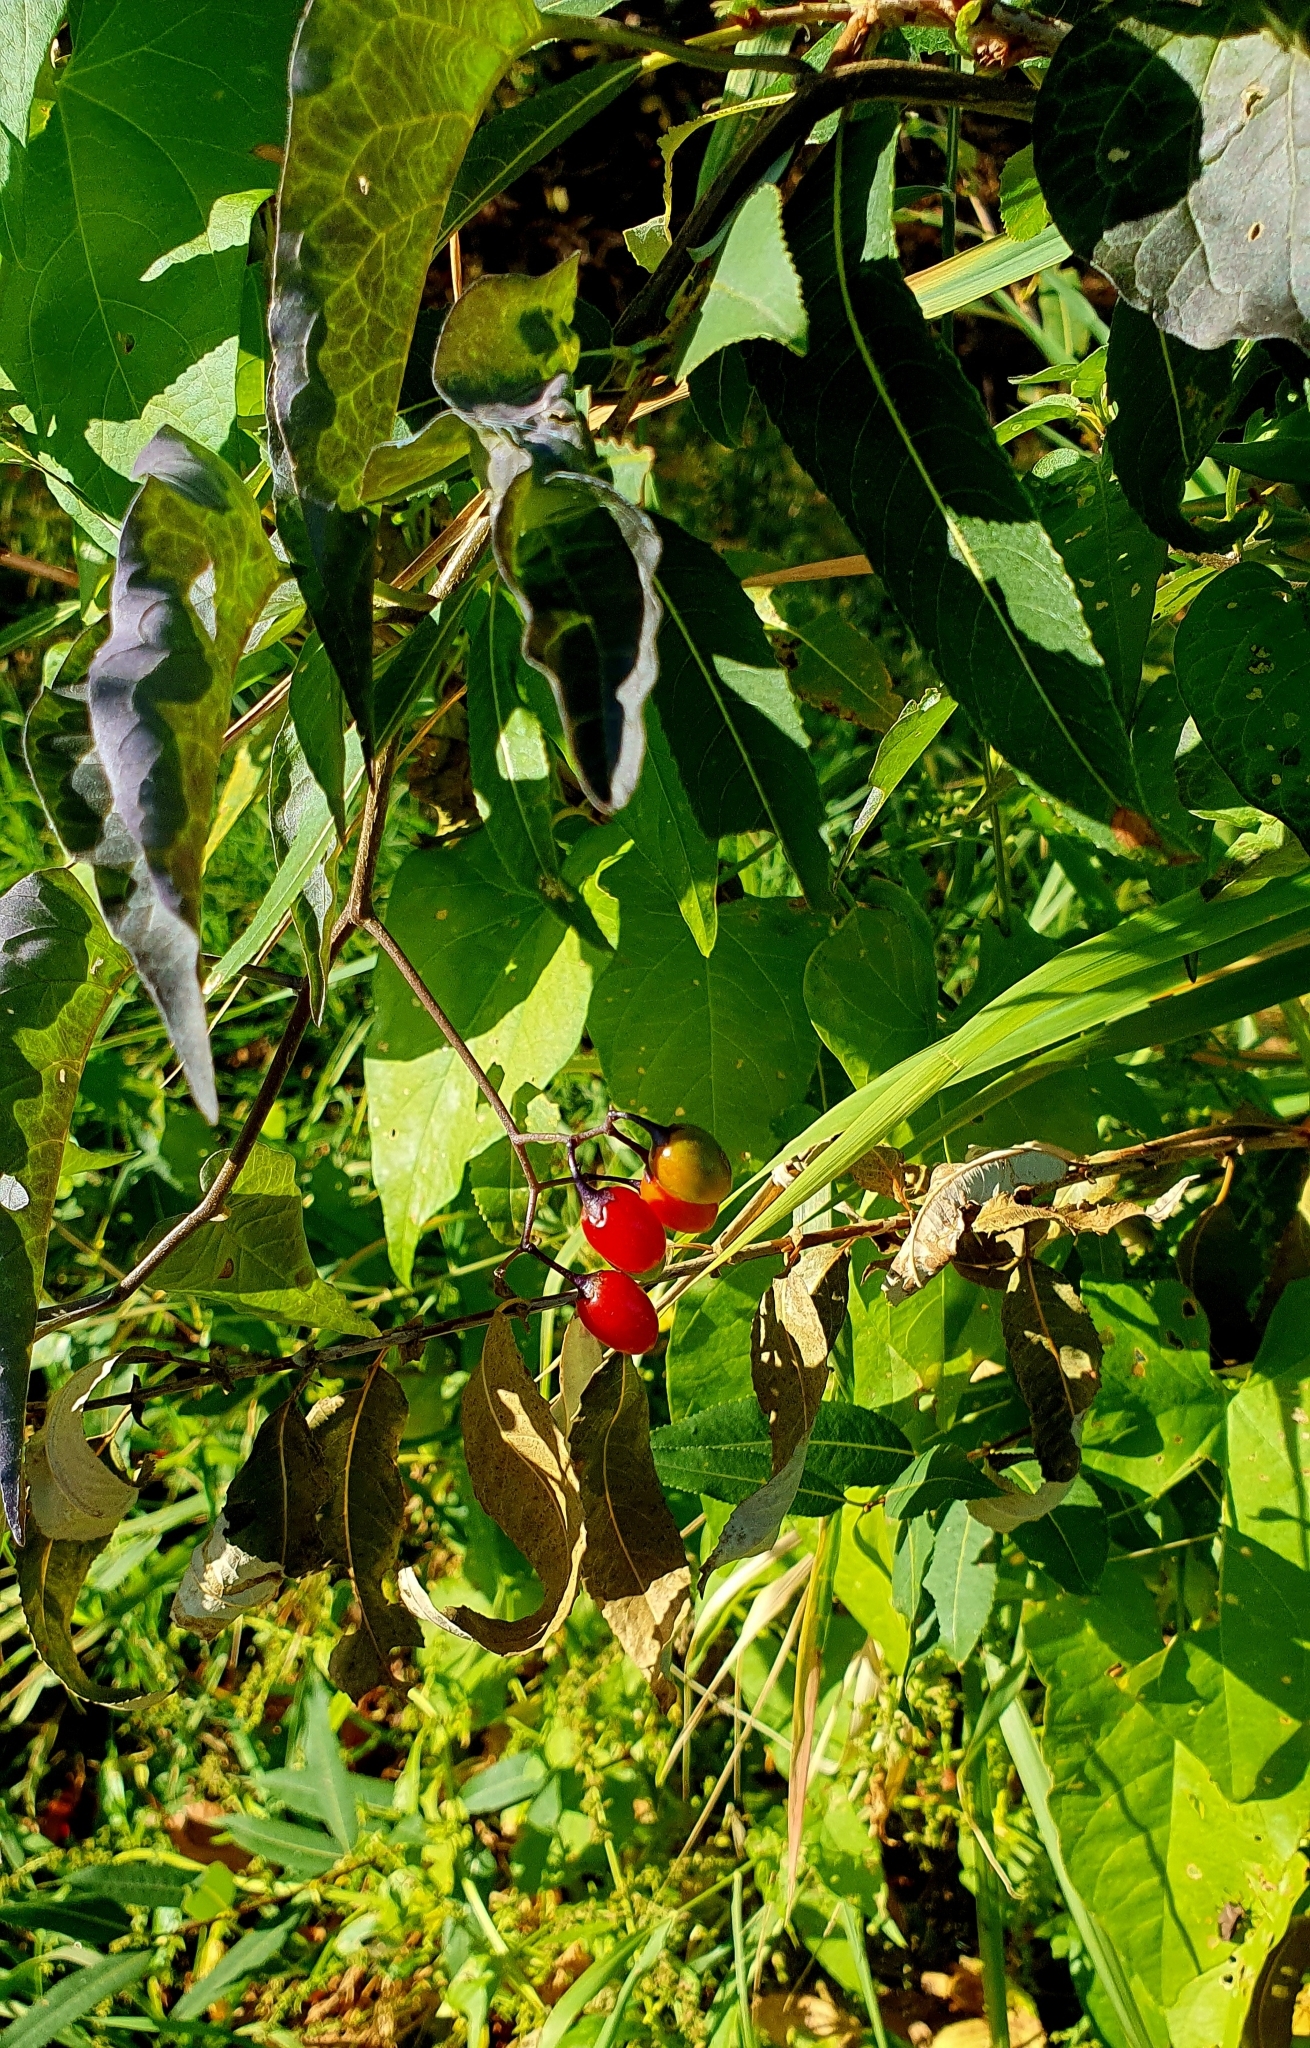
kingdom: Plantae
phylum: Tracheophyta
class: Magnoliopsida
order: Solanales
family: Solanaceae
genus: Solanum
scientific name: Solanum dulcamara
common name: Climbing nightshade
